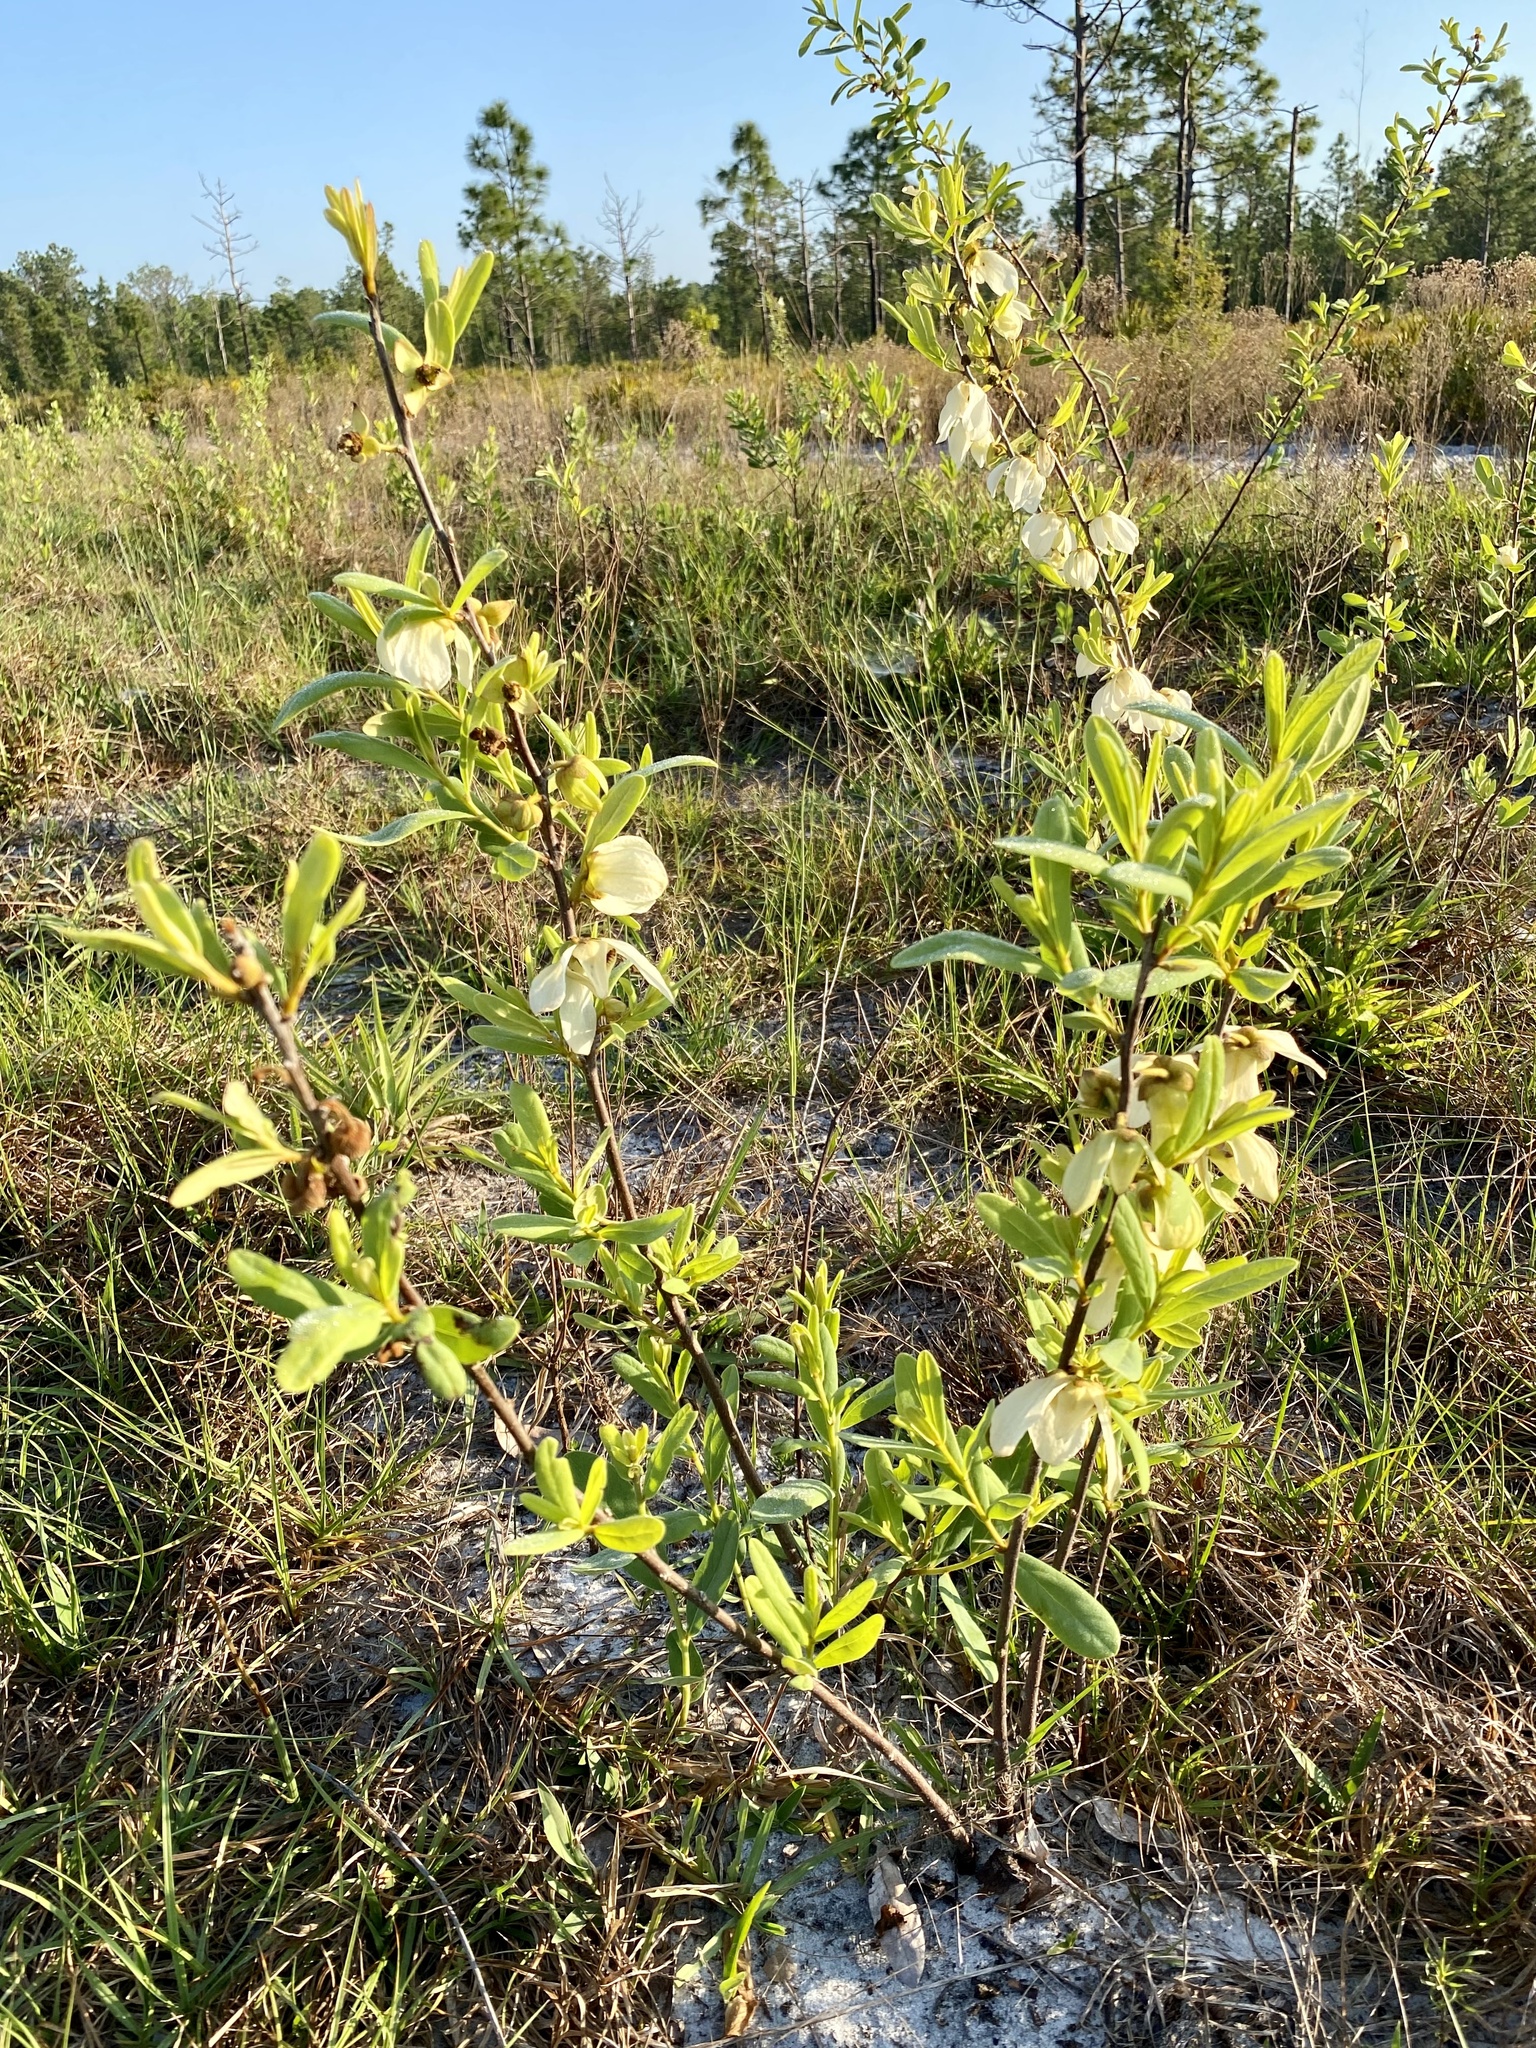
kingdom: Plantae
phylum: Tracheophyta
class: Magnoliopsida
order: Magnoliales
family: Annonaceae
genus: Asimina
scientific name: Asimina reticulata
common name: Flag pawpaw
